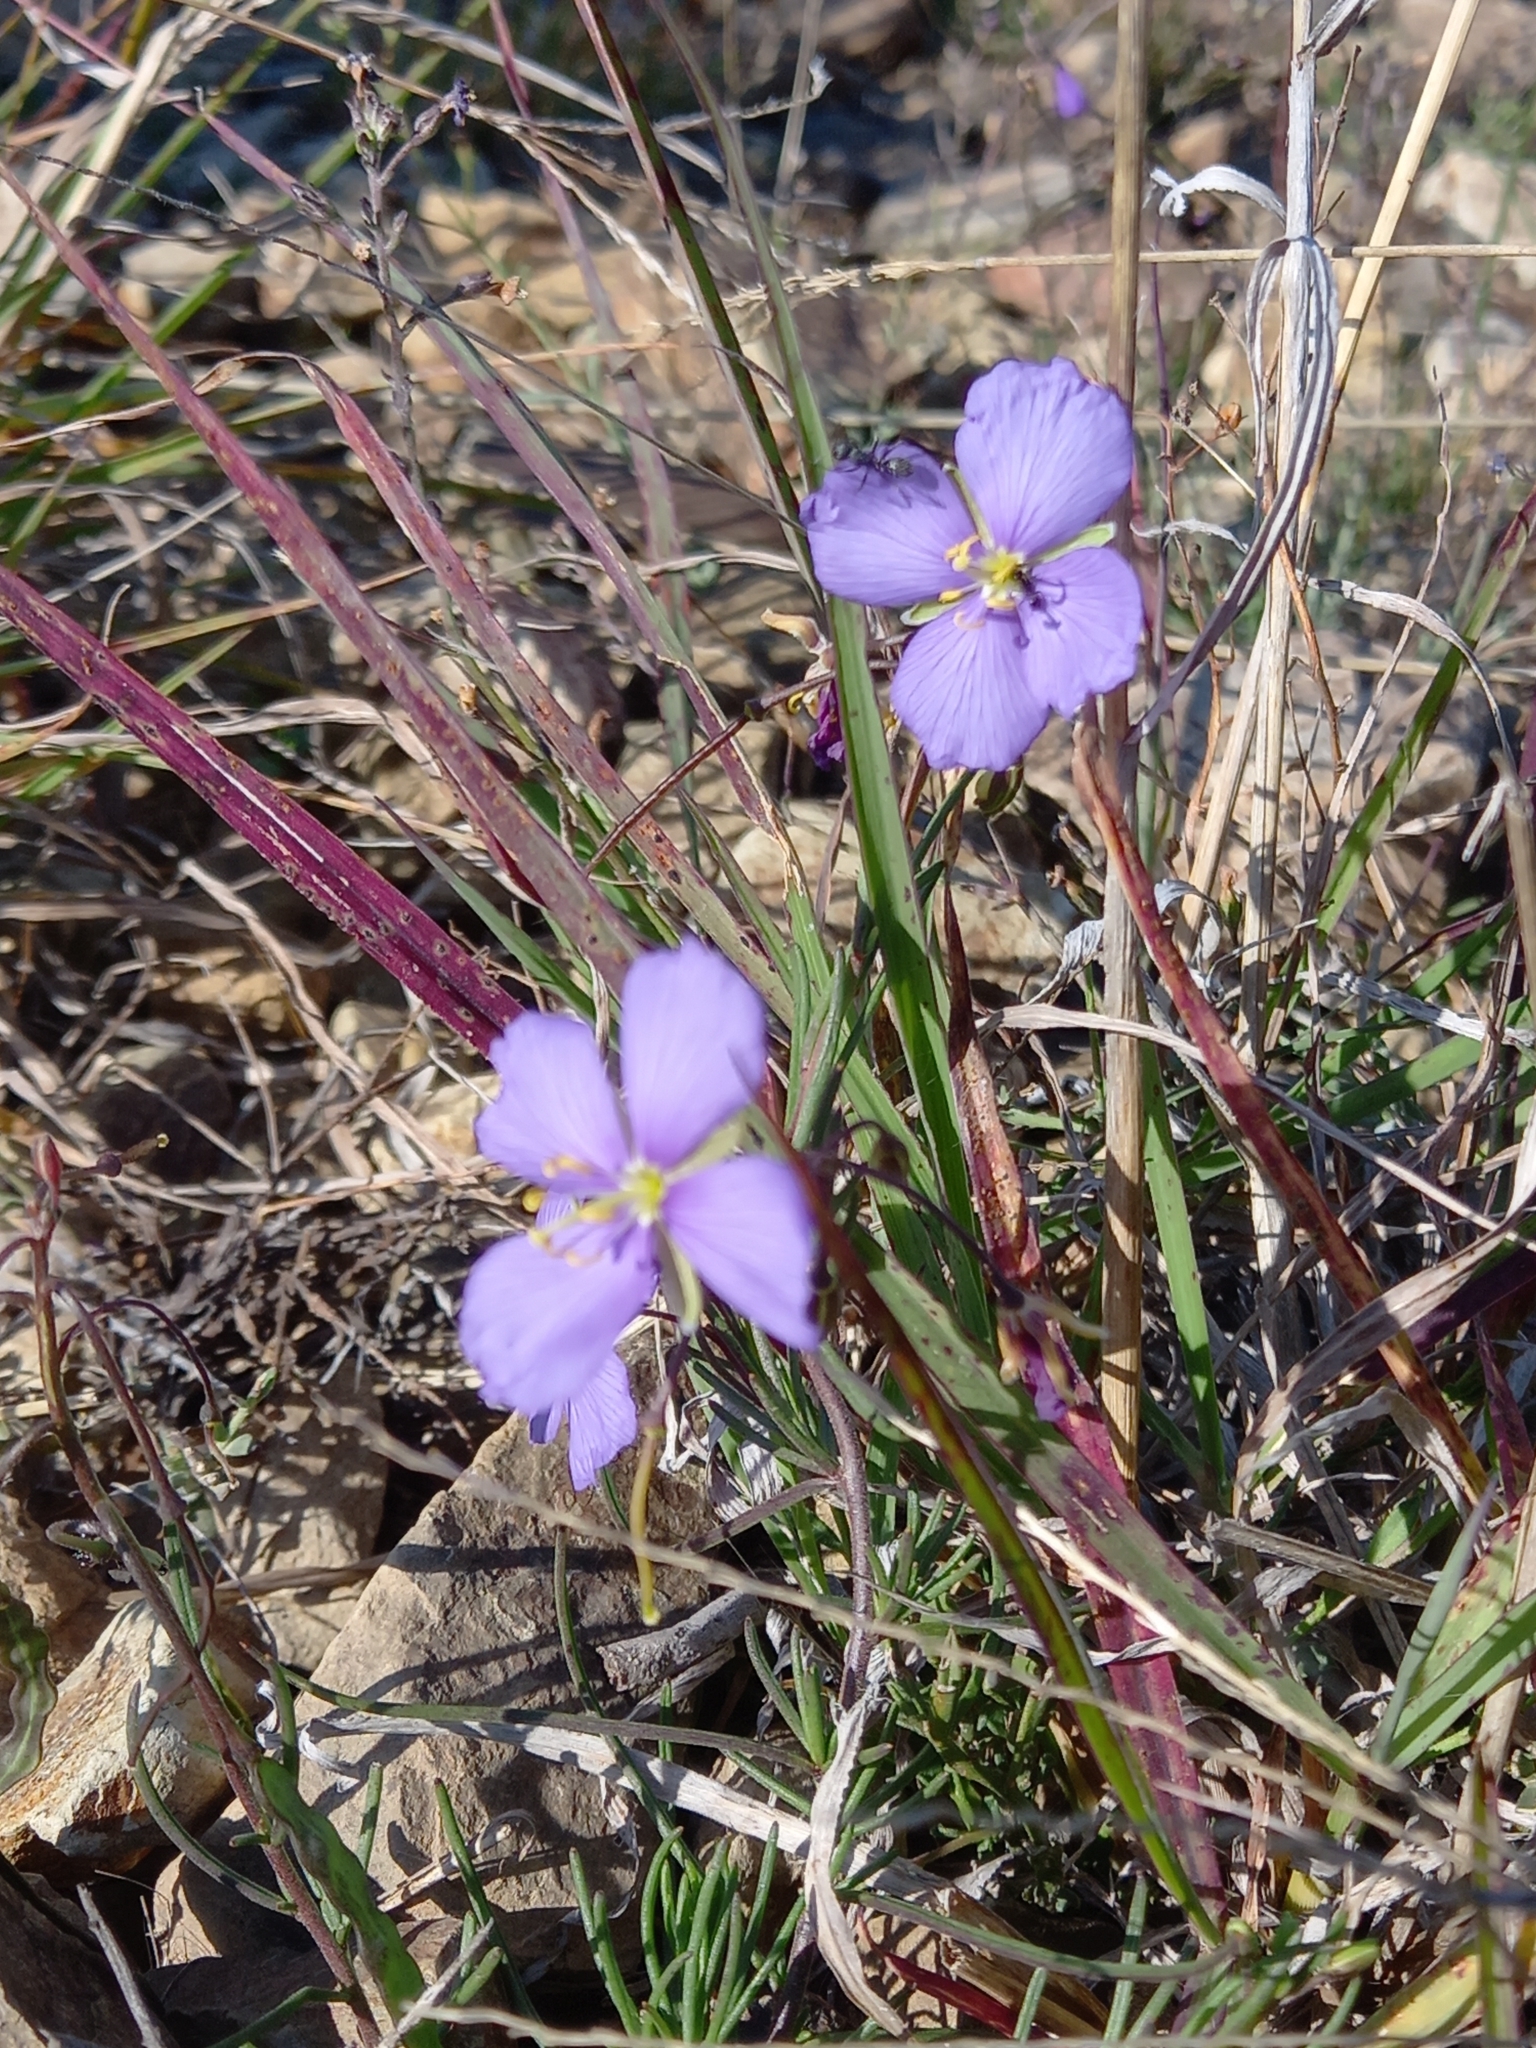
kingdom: Plantae
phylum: Tracheophyta
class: Magnoliopsida
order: Brassicales
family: Brassicaceae
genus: Heliophila
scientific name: Heliophila suavissima
